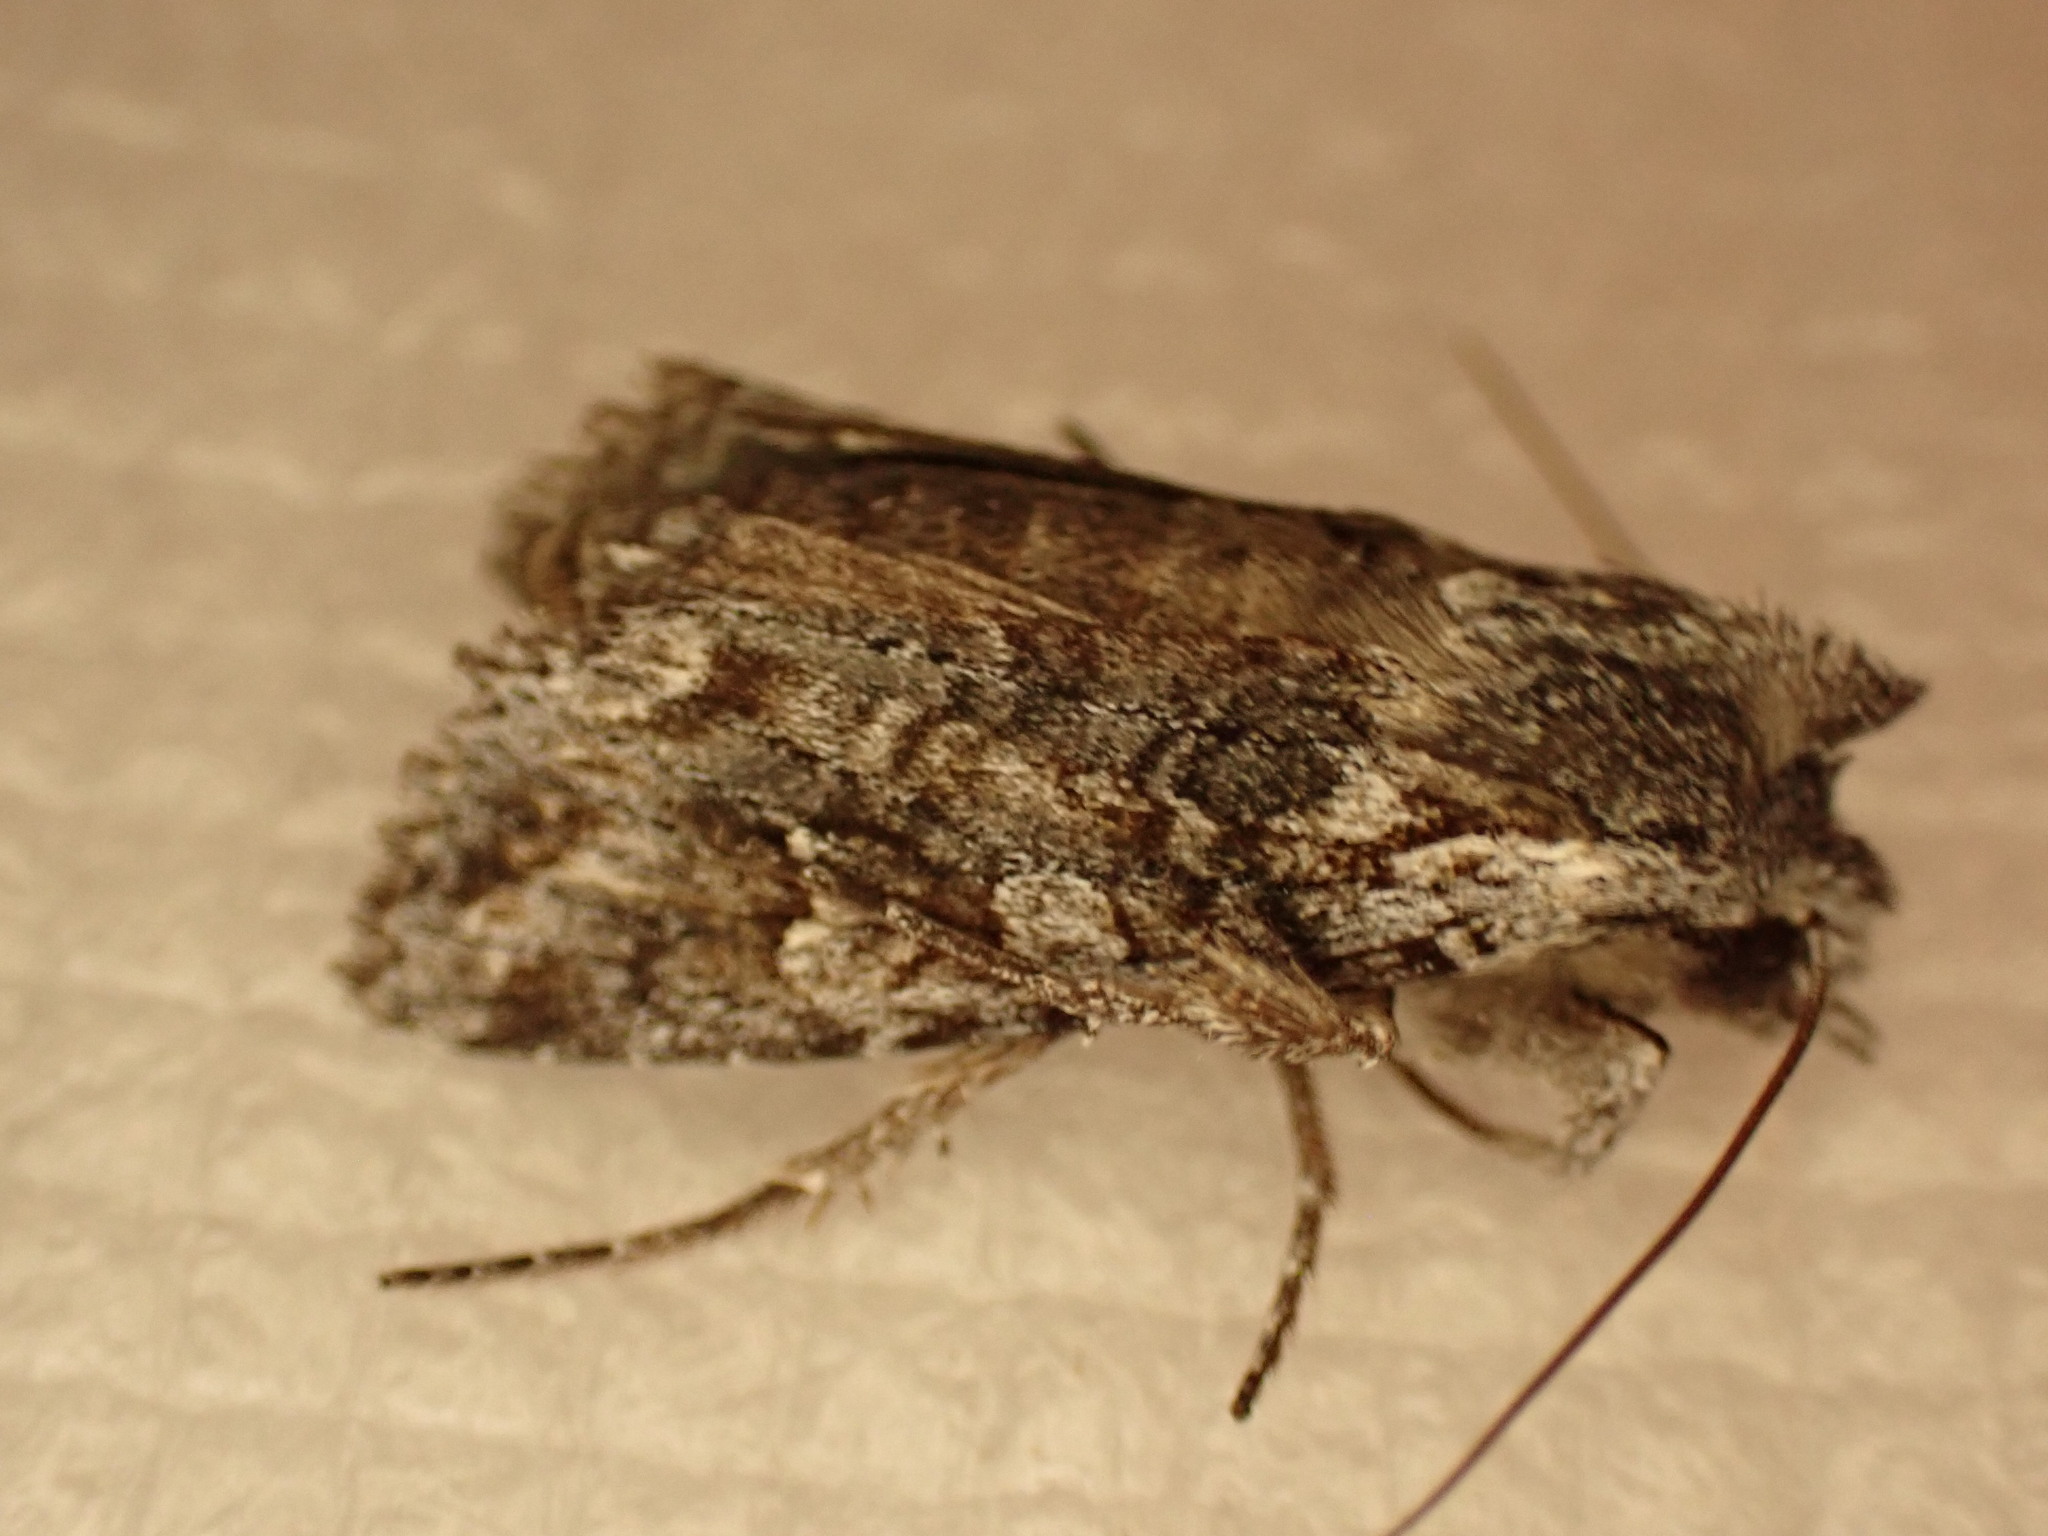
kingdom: Animalia
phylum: Arthropoda
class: Insecta
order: Lepidoptera
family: Noctuidae
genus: Ichneutica
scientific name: Ichneutica mutans
